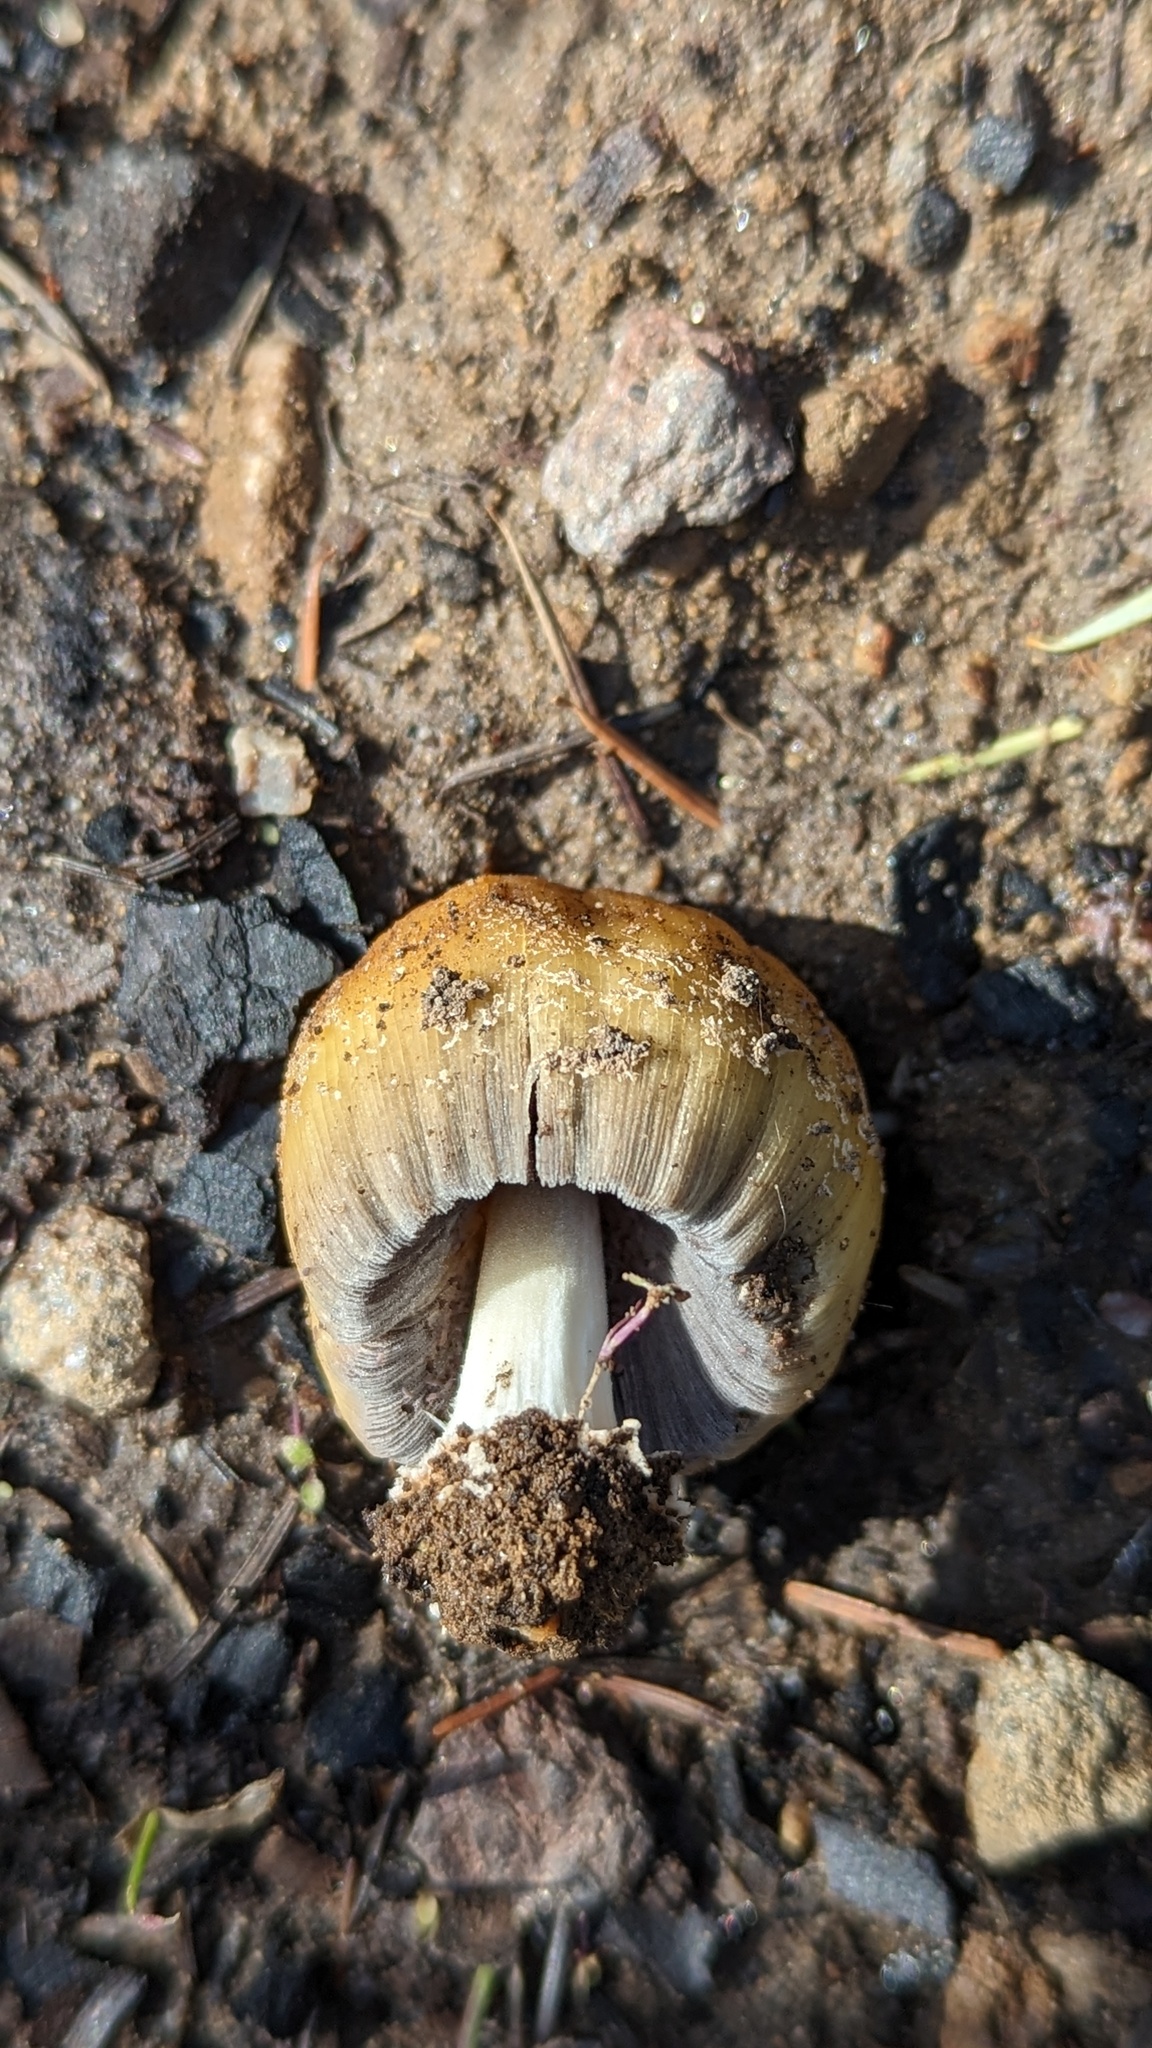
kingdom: Fungi
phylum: Basidiomycota
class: Agaricomycetes
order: Agaricales
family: Psathyrellaceae
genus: Coprinellus
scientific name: Coprinellus bipellis
